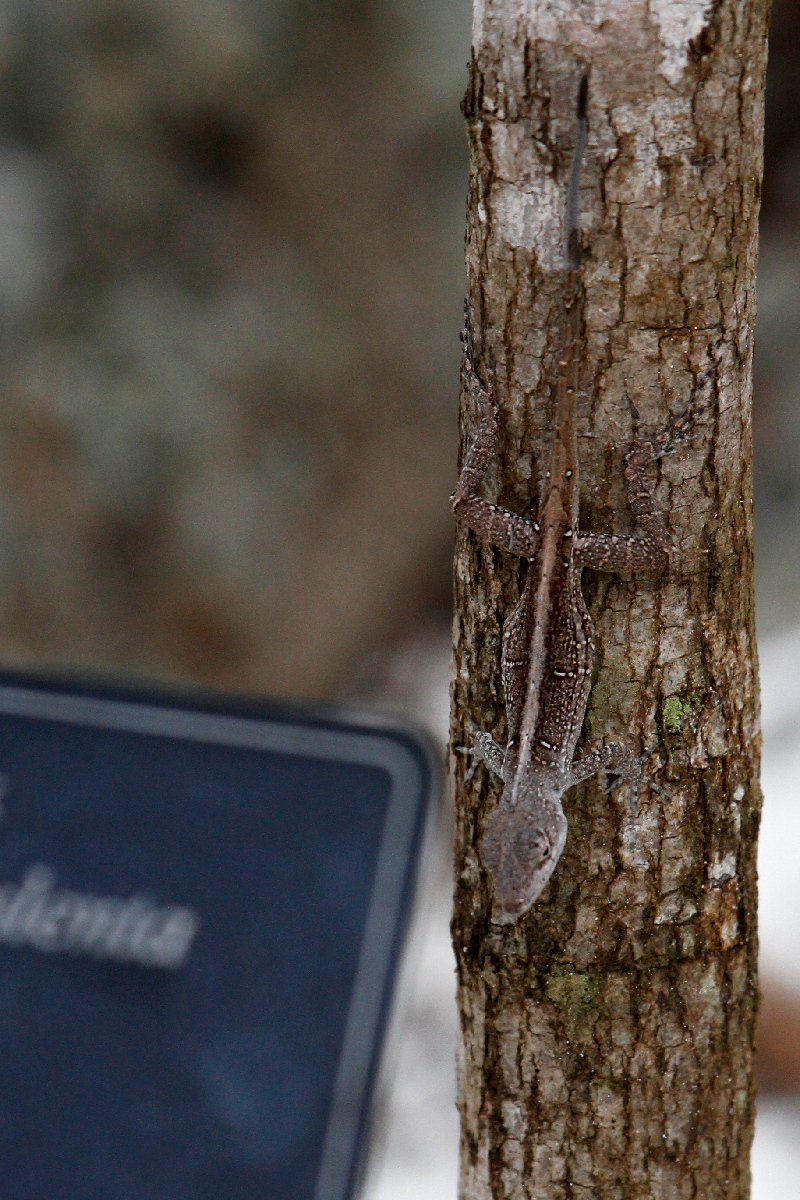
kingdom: Animalia
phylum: Chordata
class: Squamata
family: Dactyloidae
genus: Anolis
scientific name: Anolis sagrei
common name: Brown anole
